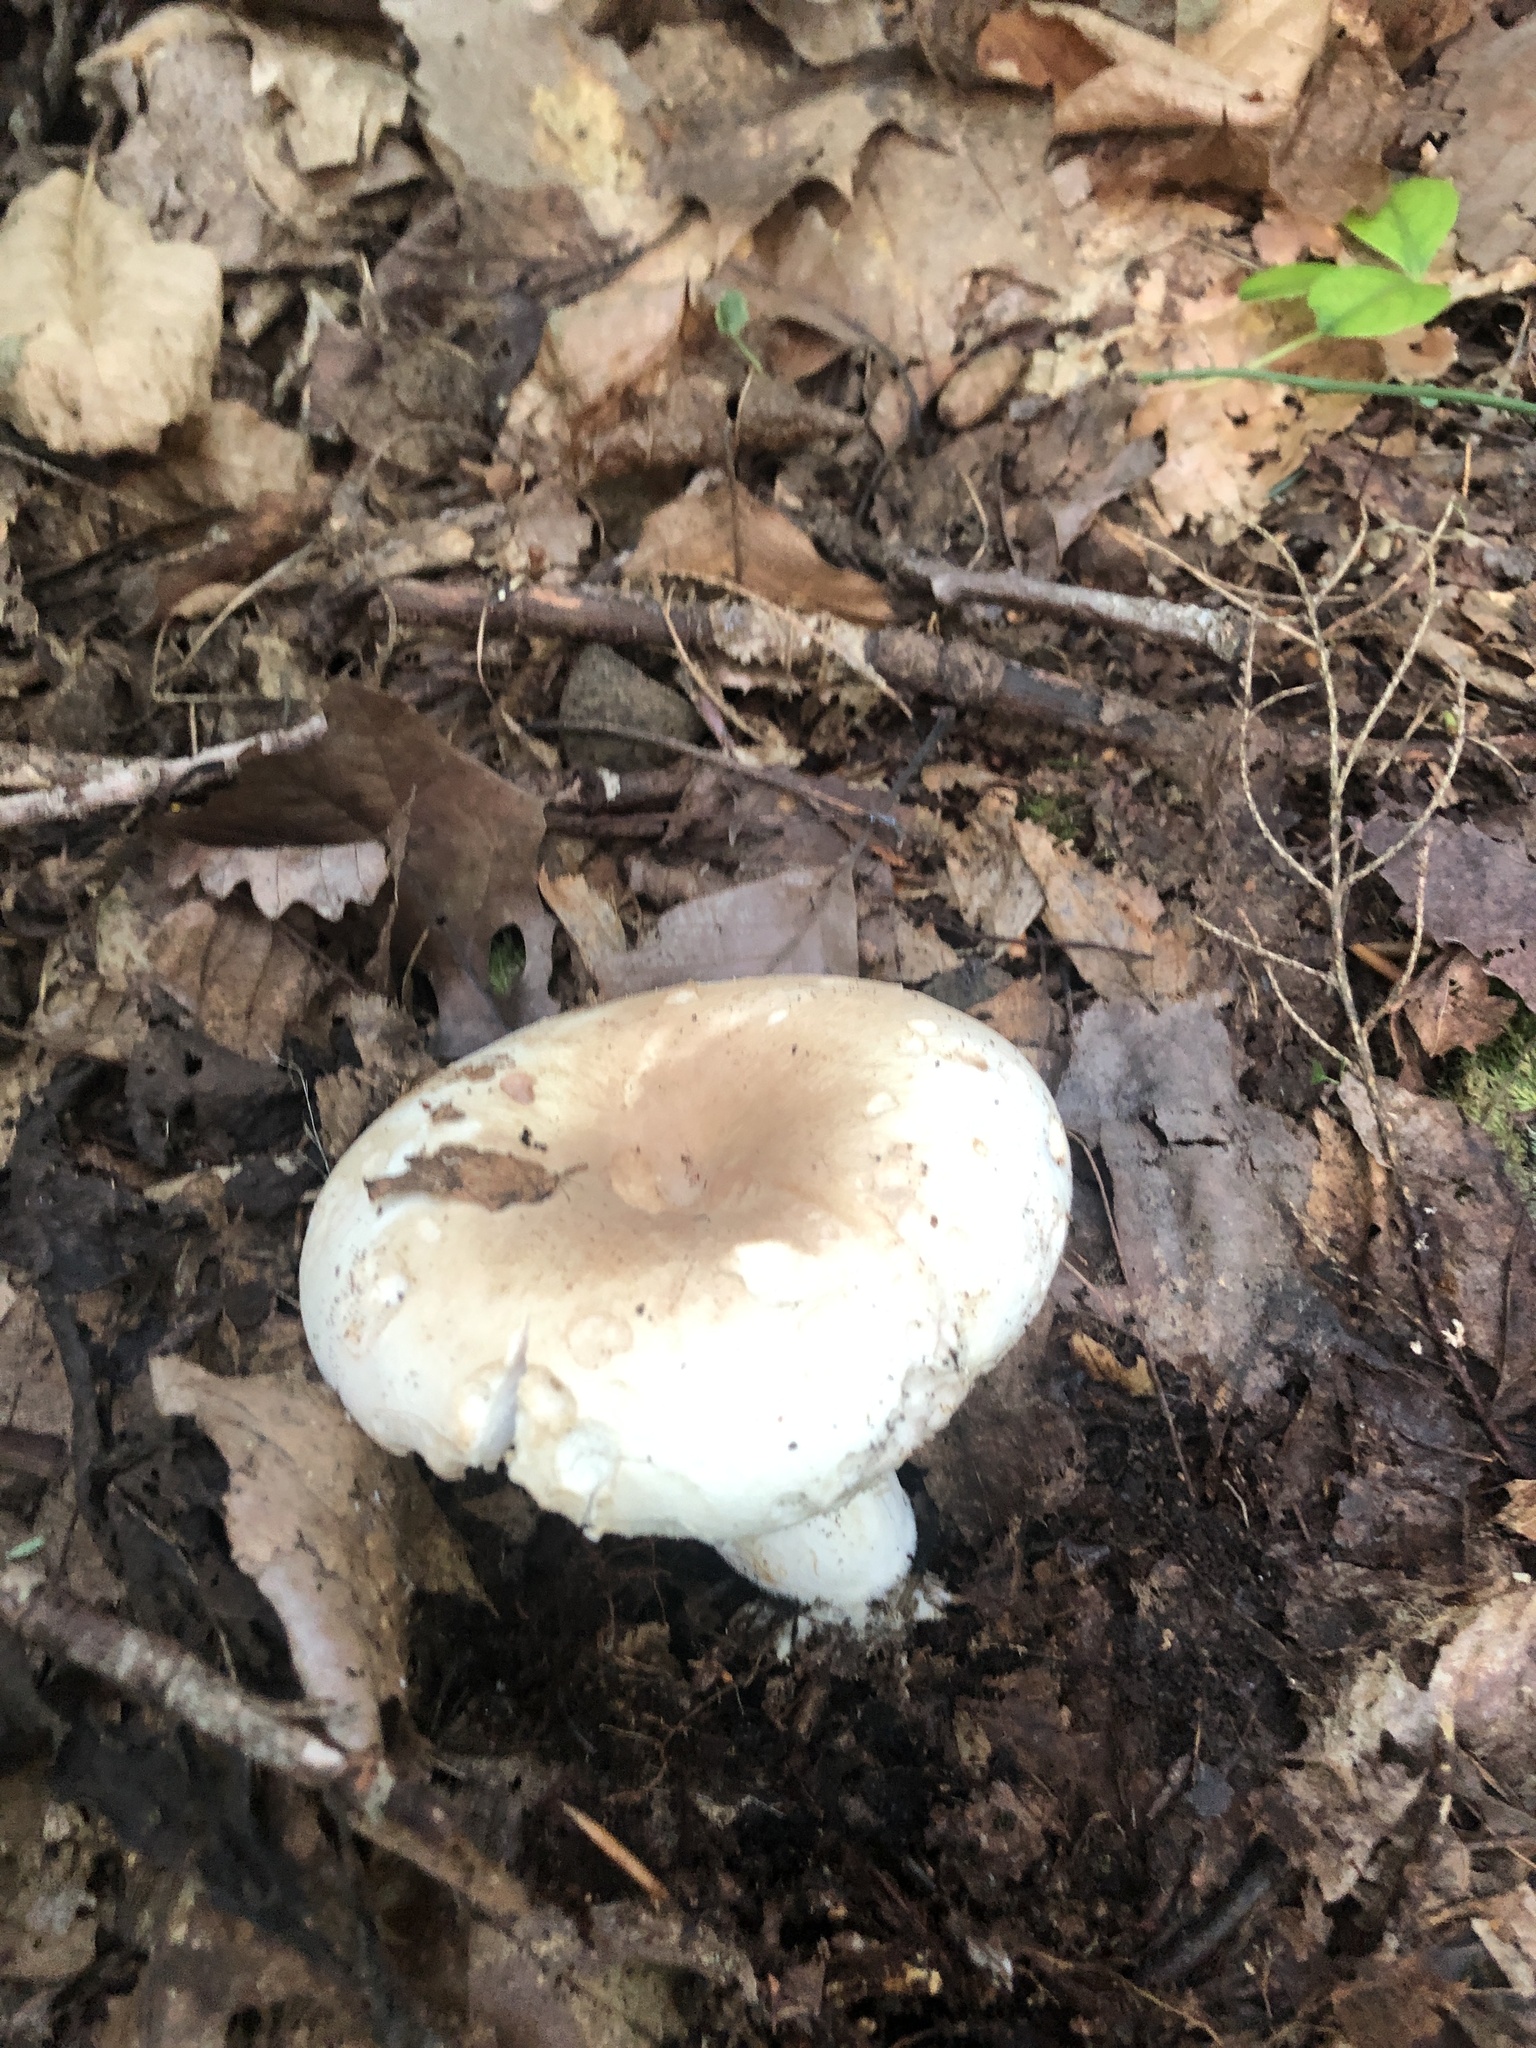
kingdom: Fungi
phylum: Basidiomycota
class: Agaricomycetes
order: Russulales
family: Russulaceae
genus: Russula
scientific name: Russula compacta
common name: Fishbiscuit russula
